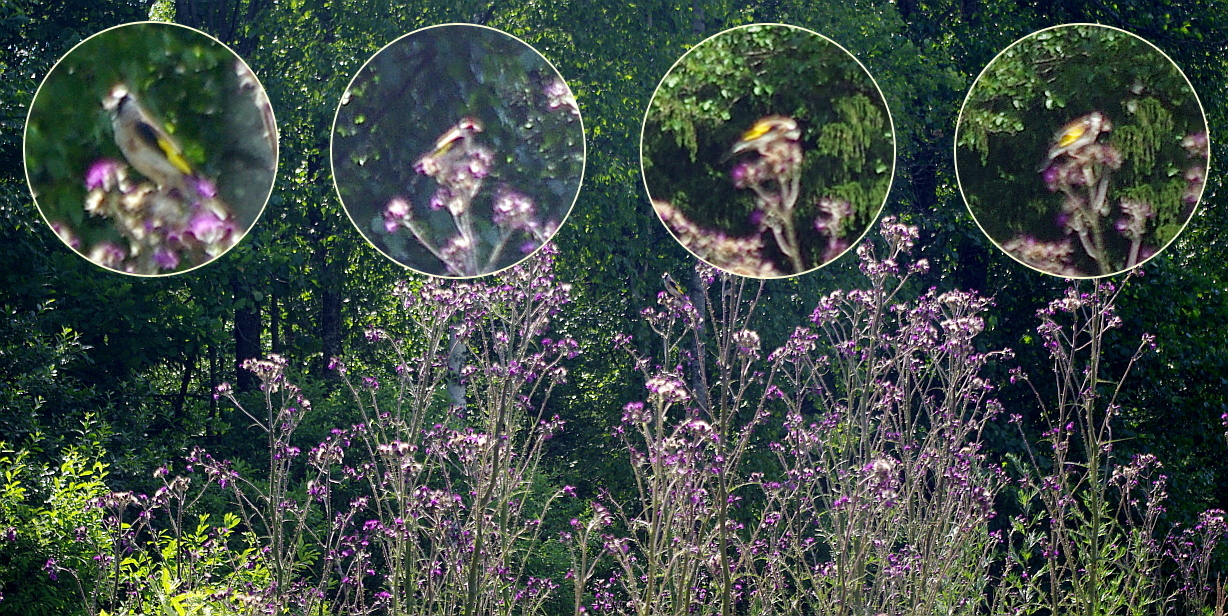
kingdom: Animalia
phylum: Chordata
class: Aves
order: Passeriformes
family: Fringillidae
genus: Carduelis
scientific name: Carduelis carduelis
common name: European goldfinch
